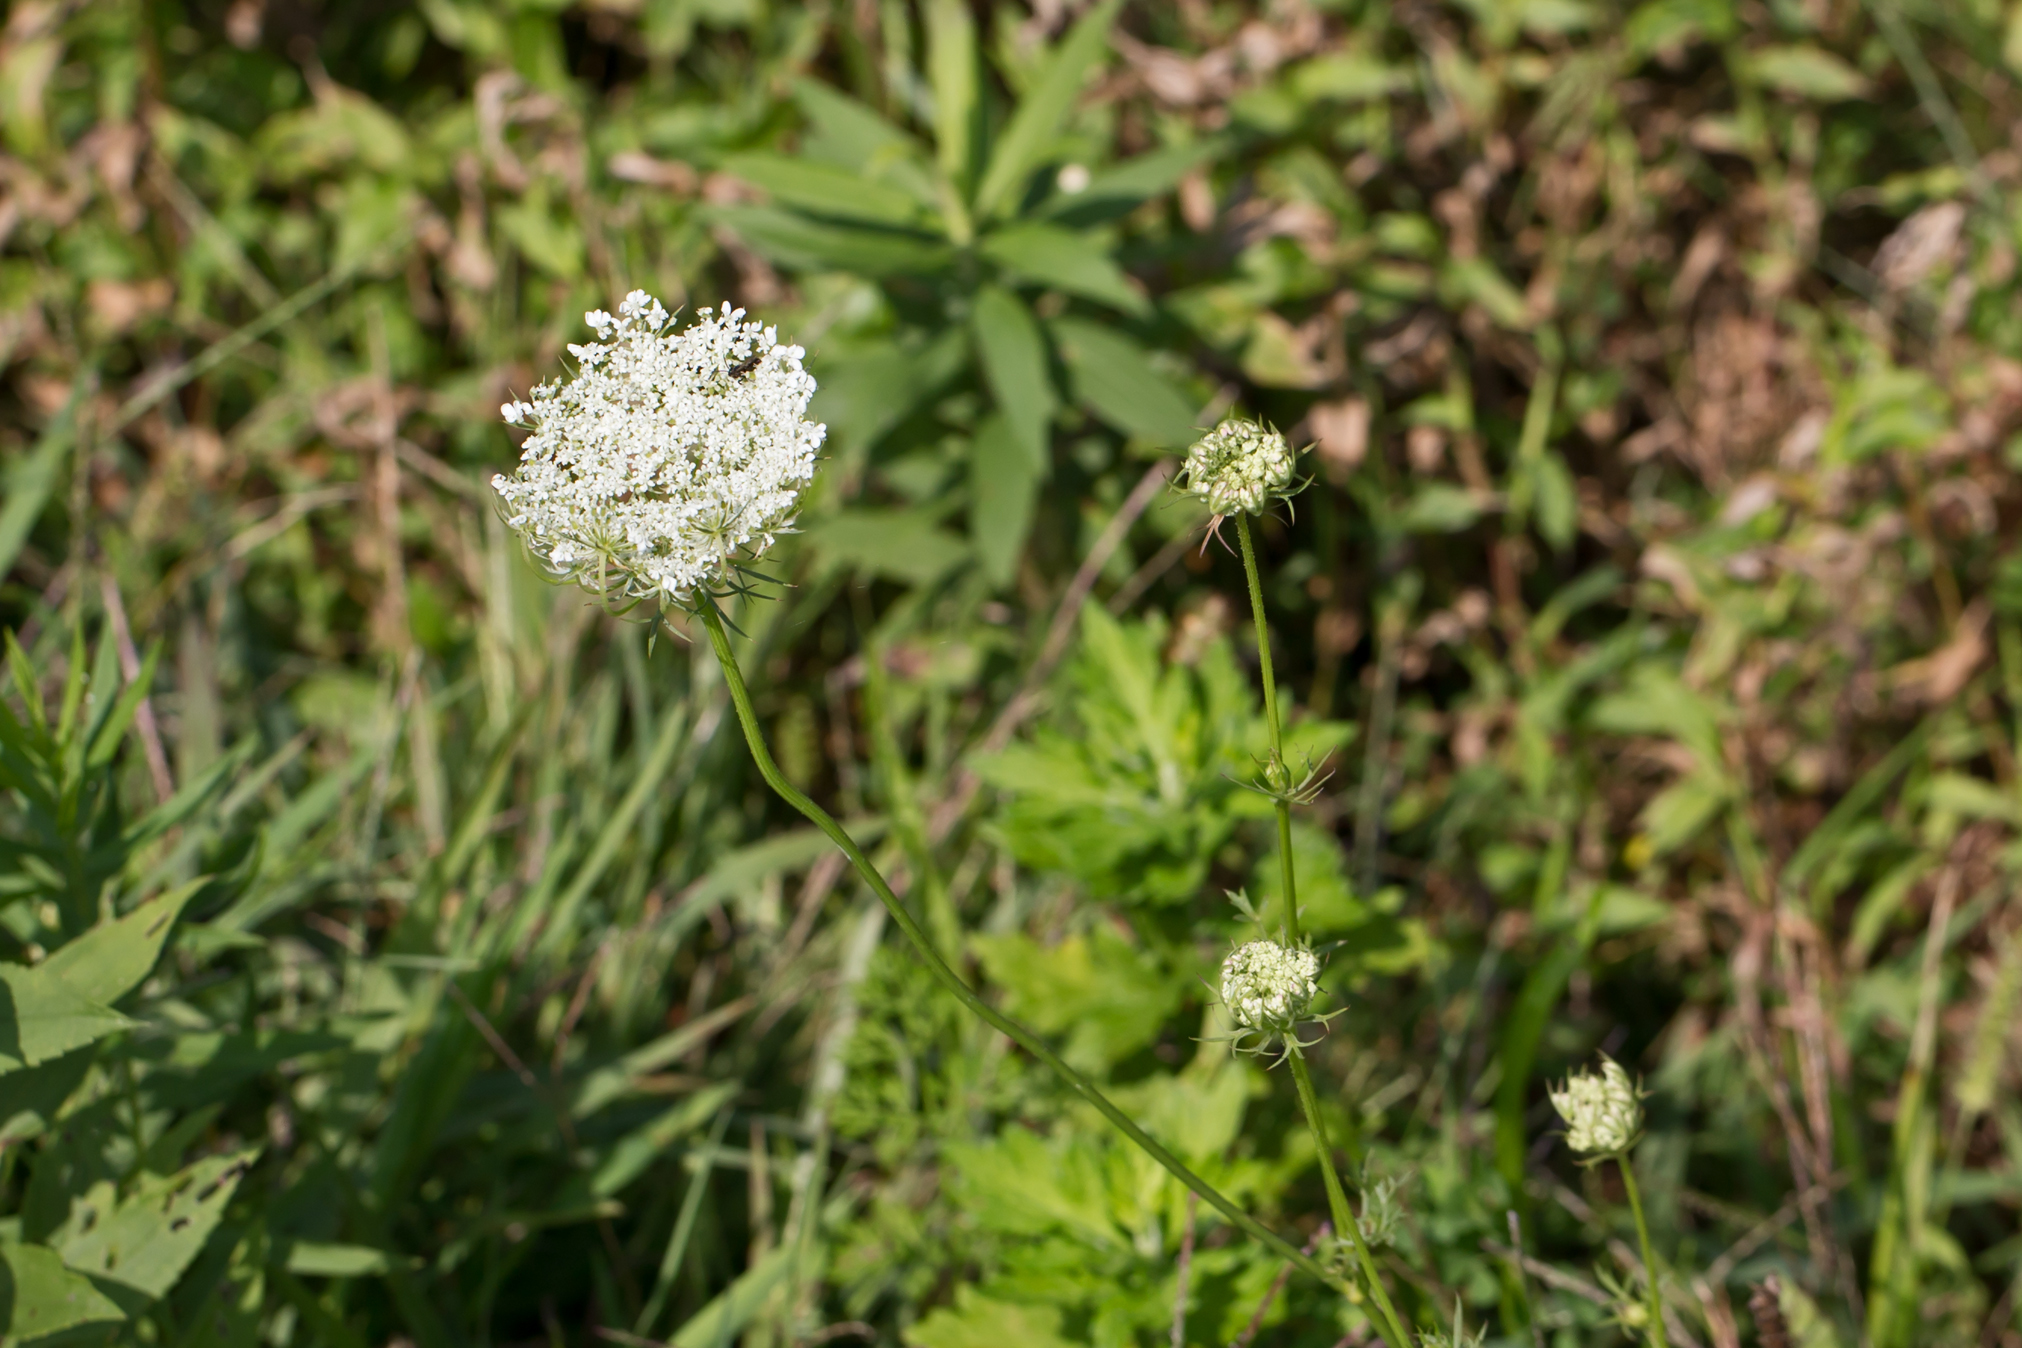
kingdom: Plantae
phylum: Tracheophyta
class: Magnoliopsida
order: Apiales
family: Apiaceae
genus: Daucus
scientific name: Daucus carota
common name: Wild carrot
